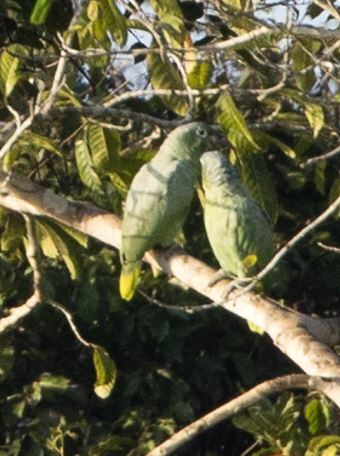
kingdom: Animalia
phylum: Chordata
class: Aves
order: Psittaciformes
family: Psittacidae
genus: Amazona
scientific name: Amazona farinosa
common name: Mealy parrot
